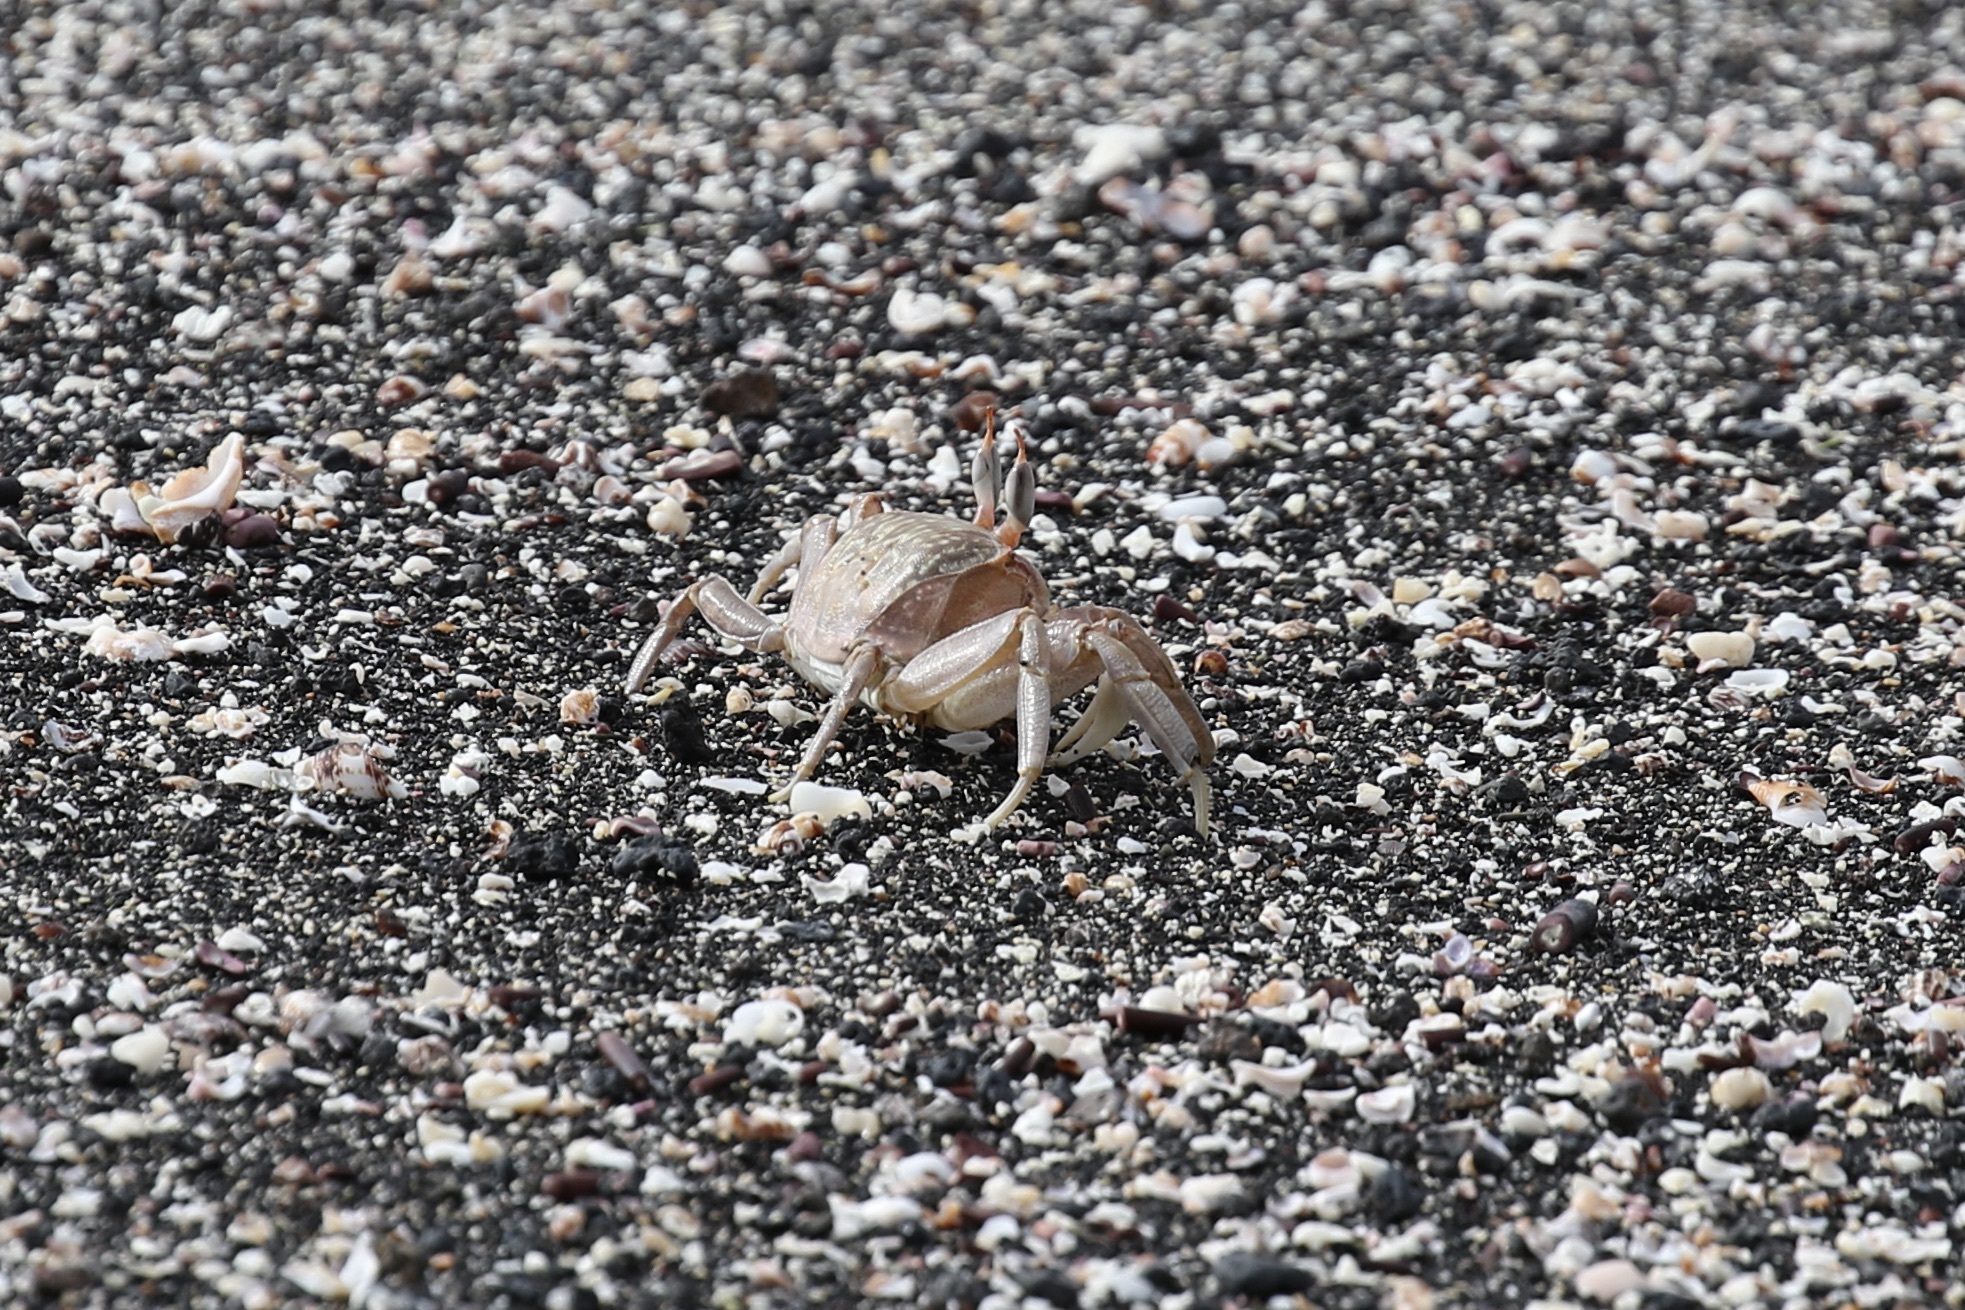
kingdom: Animalia
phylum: Arthropoda
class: Malacostraca
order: Decapoda
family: Ocypodidae
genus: Ocypode
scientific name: Ocypode gaudichaudii
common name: Pacific ghost crab
